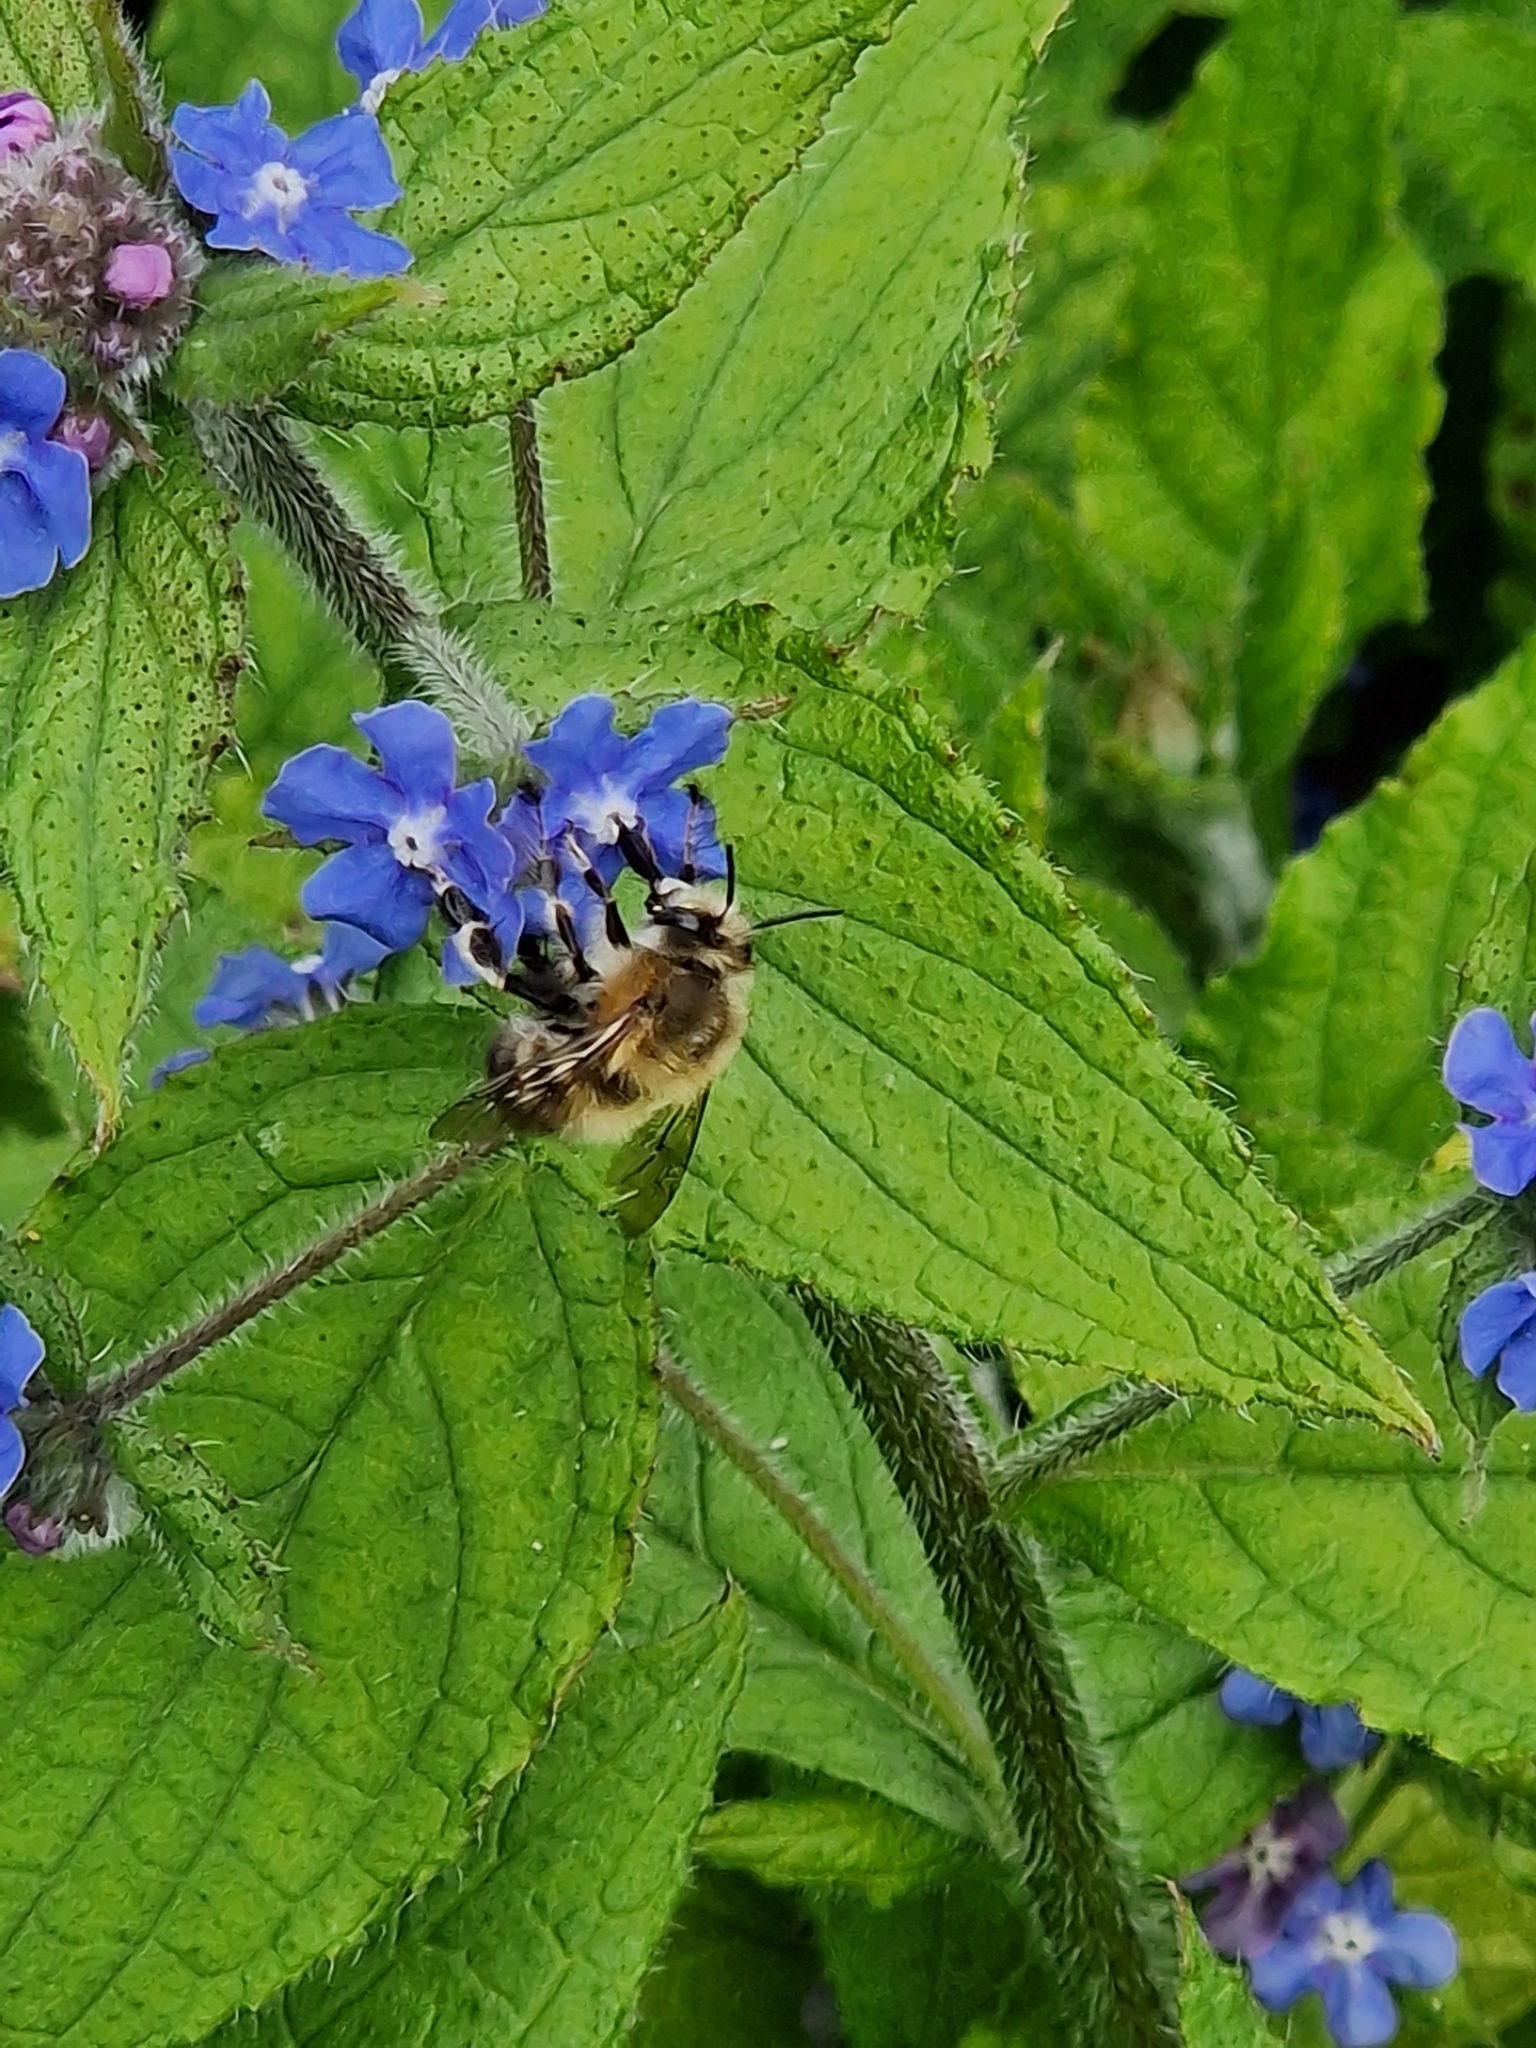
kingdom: Animalia
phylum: Arthropoda
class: Insecta
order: Hymenoptera
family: Apidae
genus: Anthophora
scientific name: Anthophora plumipes
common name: Hairy-footed flower bee
